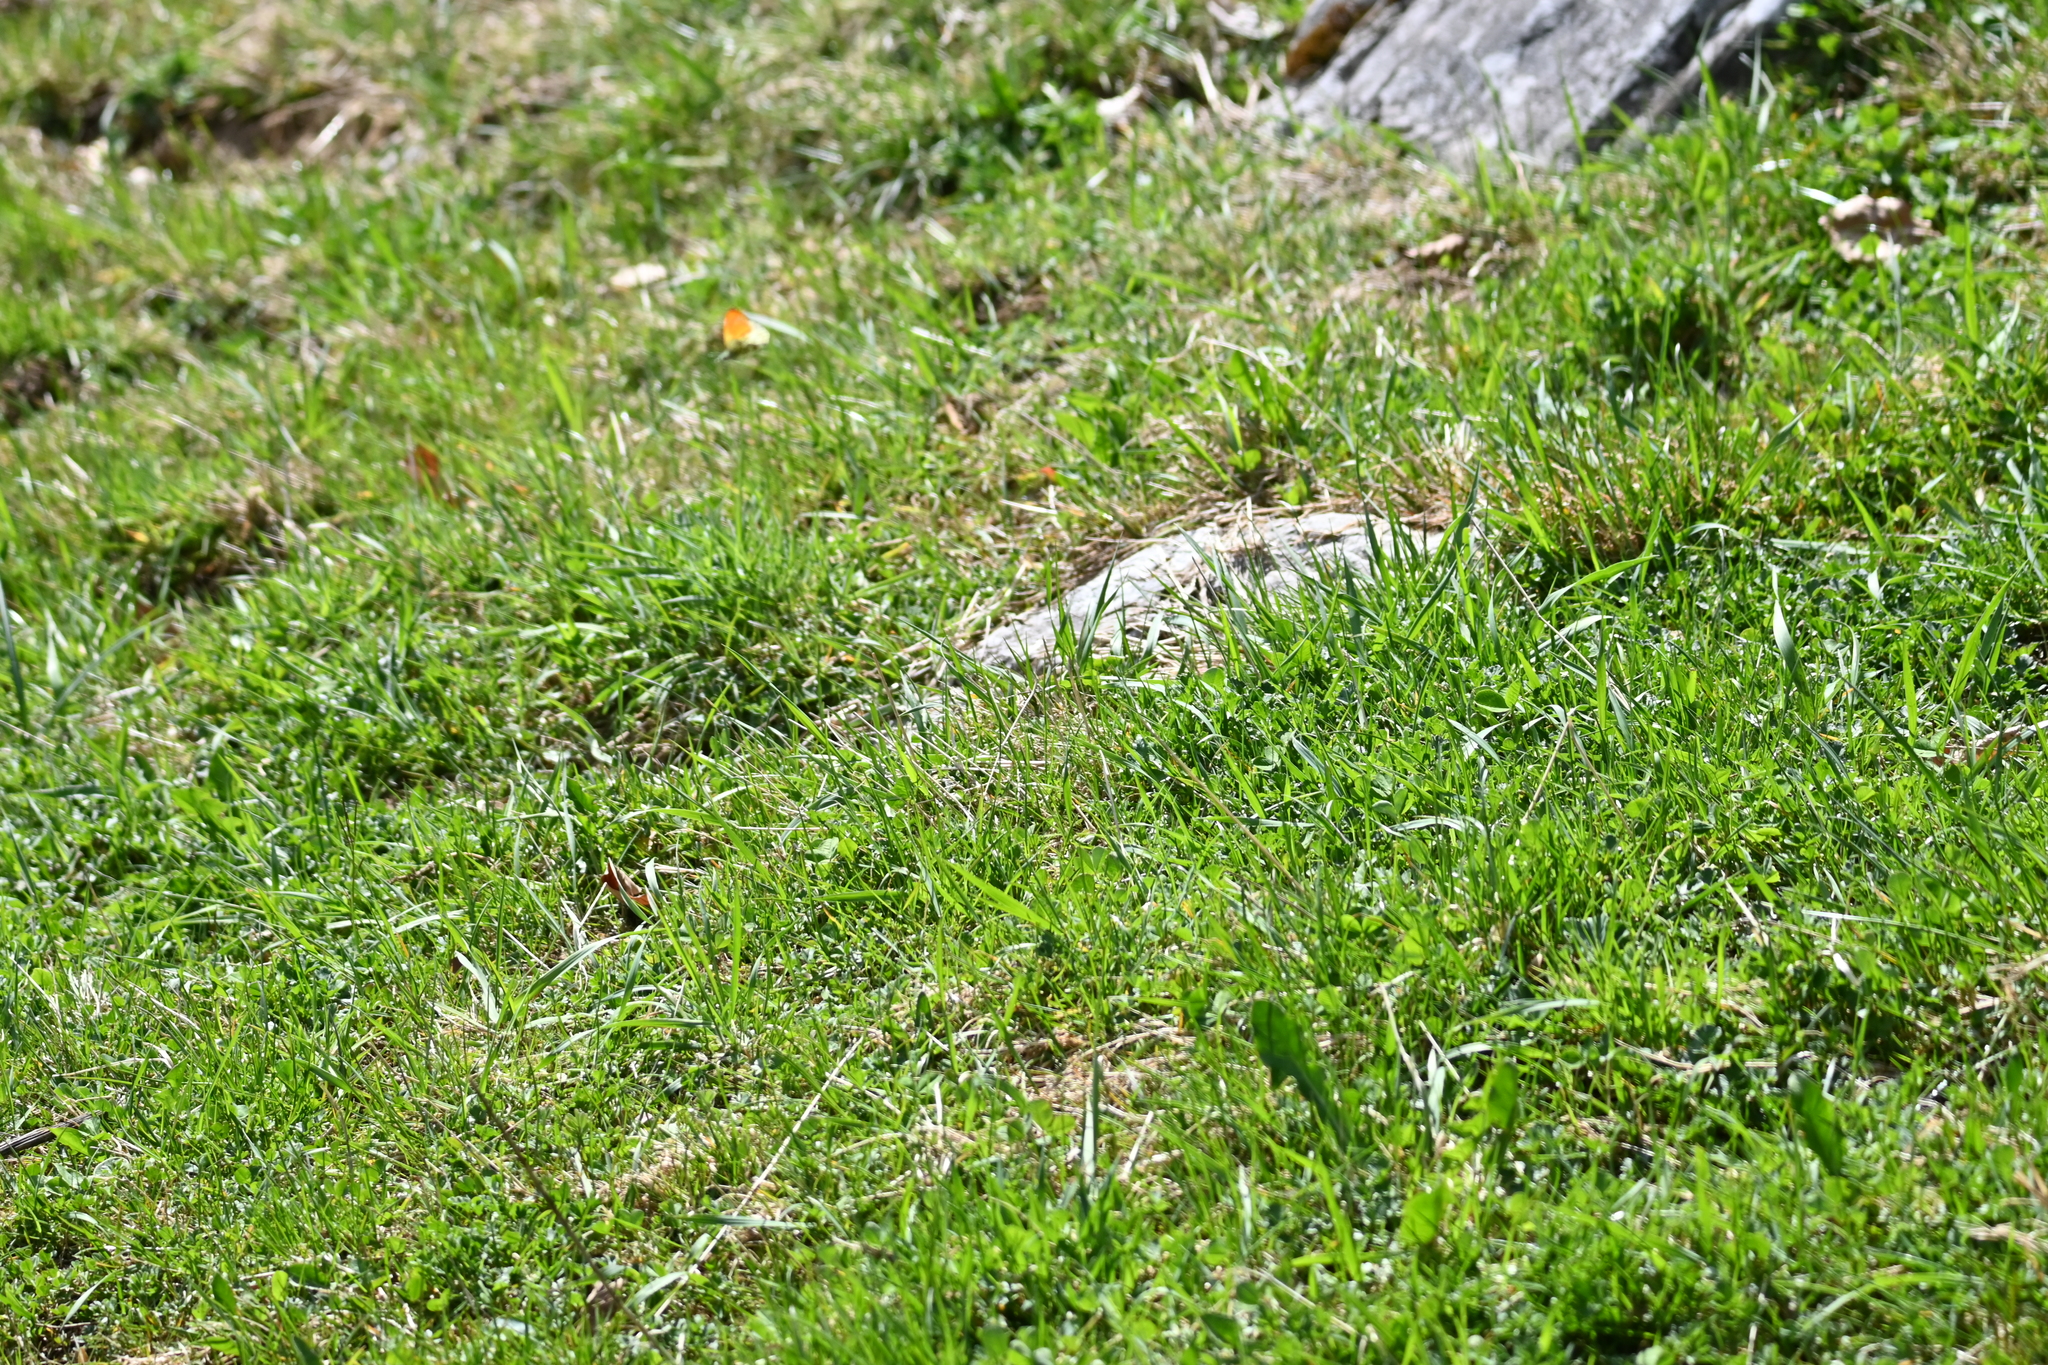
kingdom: Animalia
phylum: Arthropoda
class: Insecta
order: Lepidoptera
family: Pieridae
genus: Anthocharis
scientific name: Anthocharis cardamines
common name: Orange-tip
